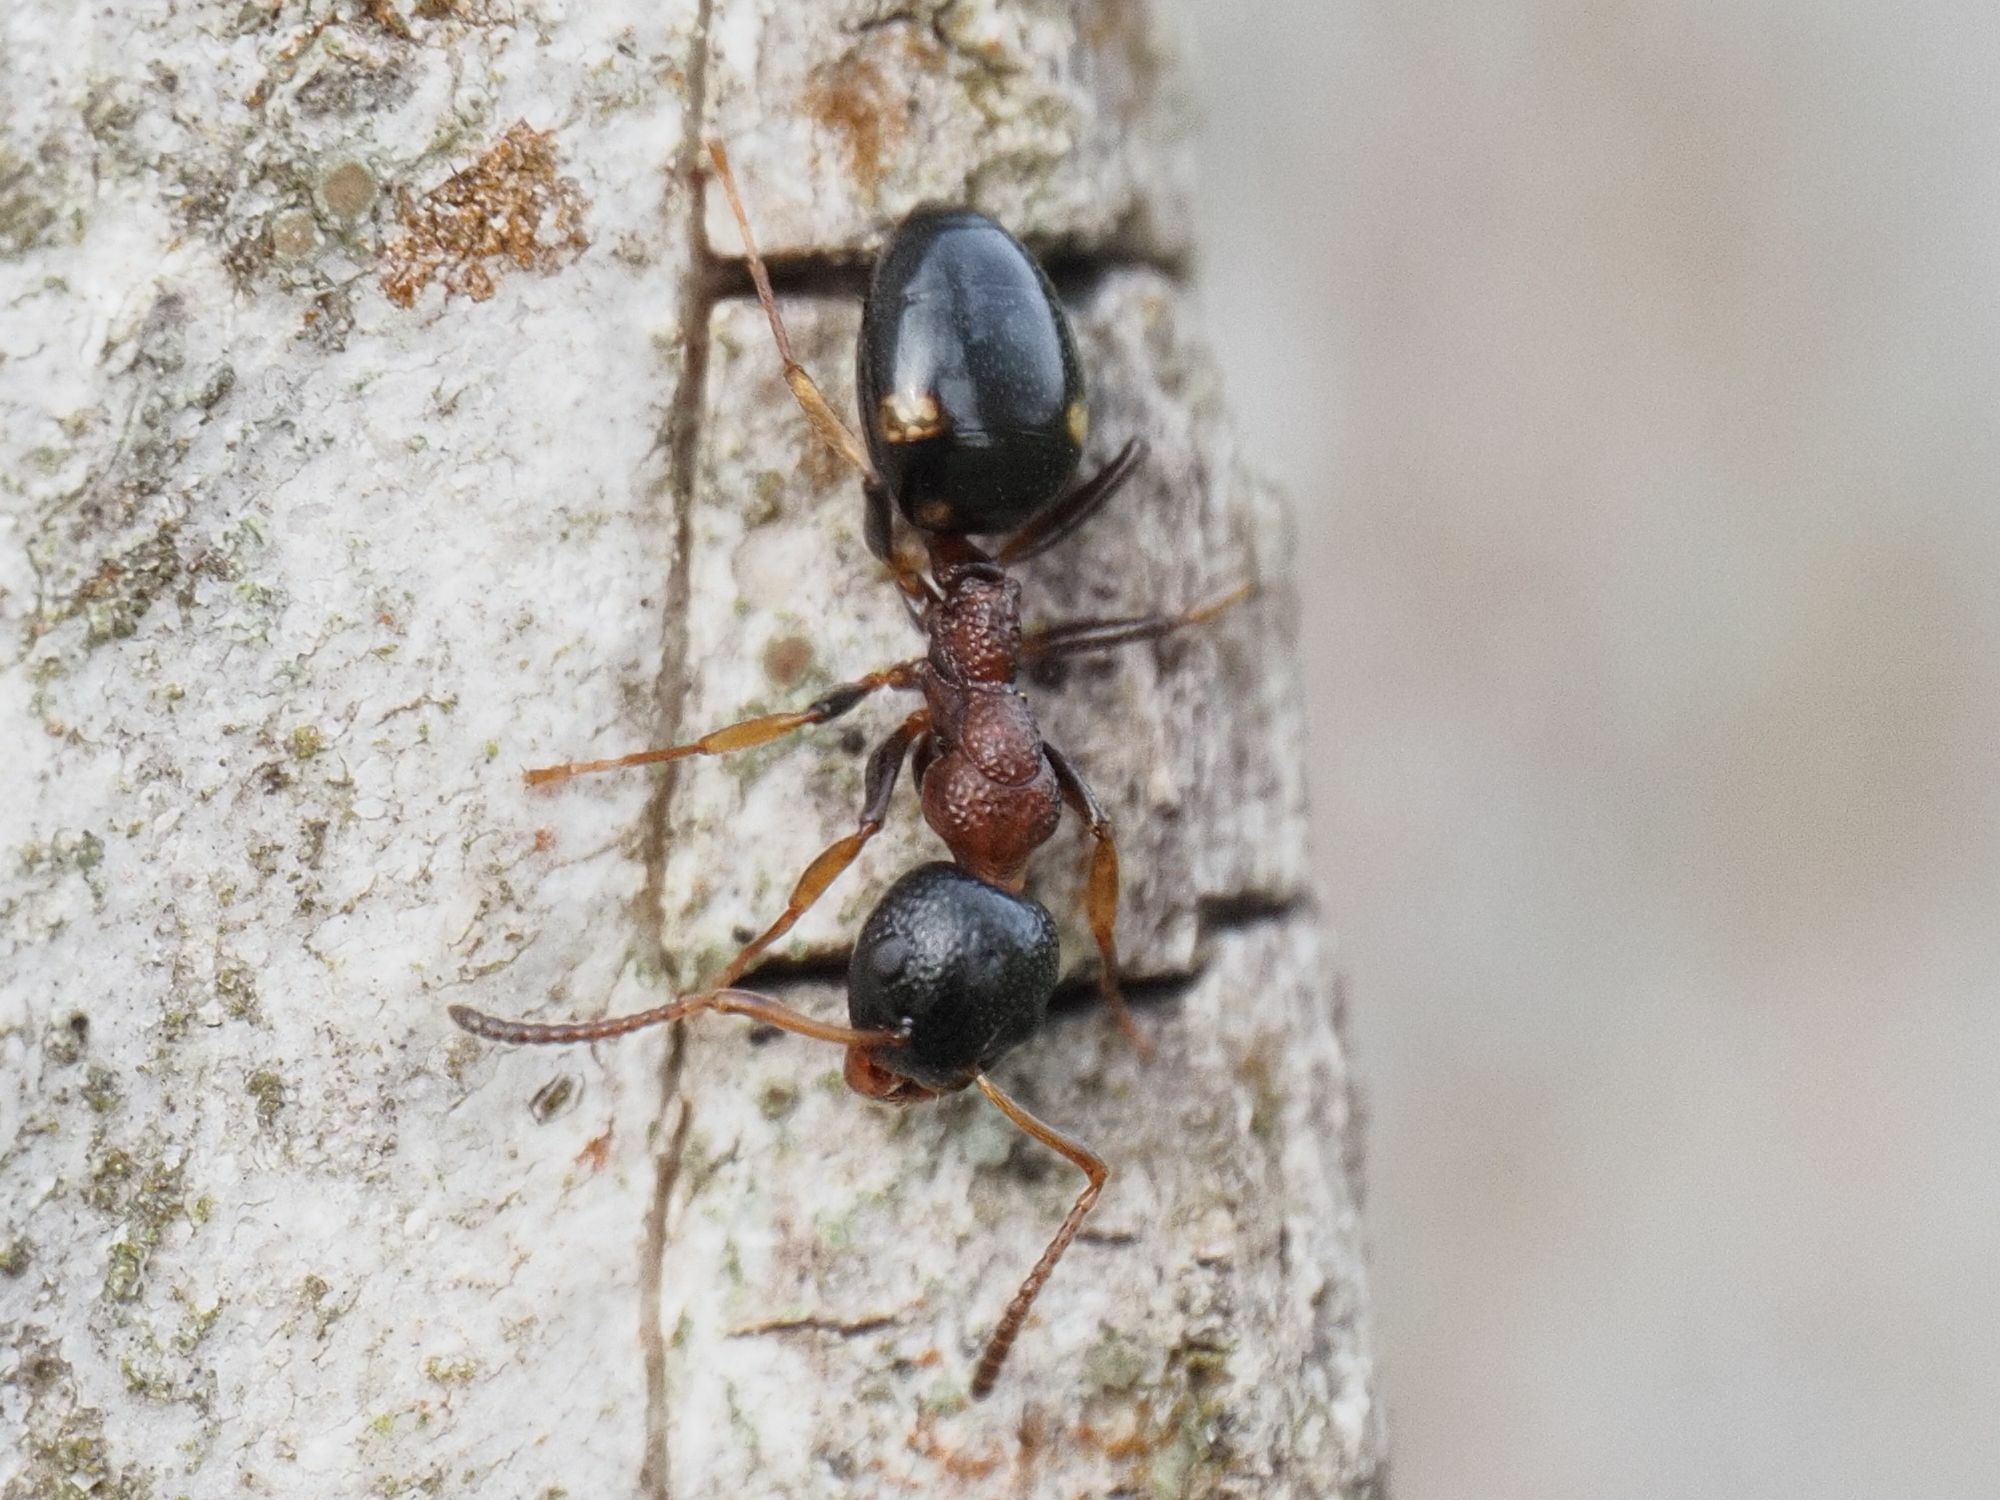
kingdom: Animalia
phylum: Arthropoda
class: Insecta
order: Hymenoptera
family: Formicidae
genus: Dolichoderus
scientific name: Dolichoderus quadripunctatus
